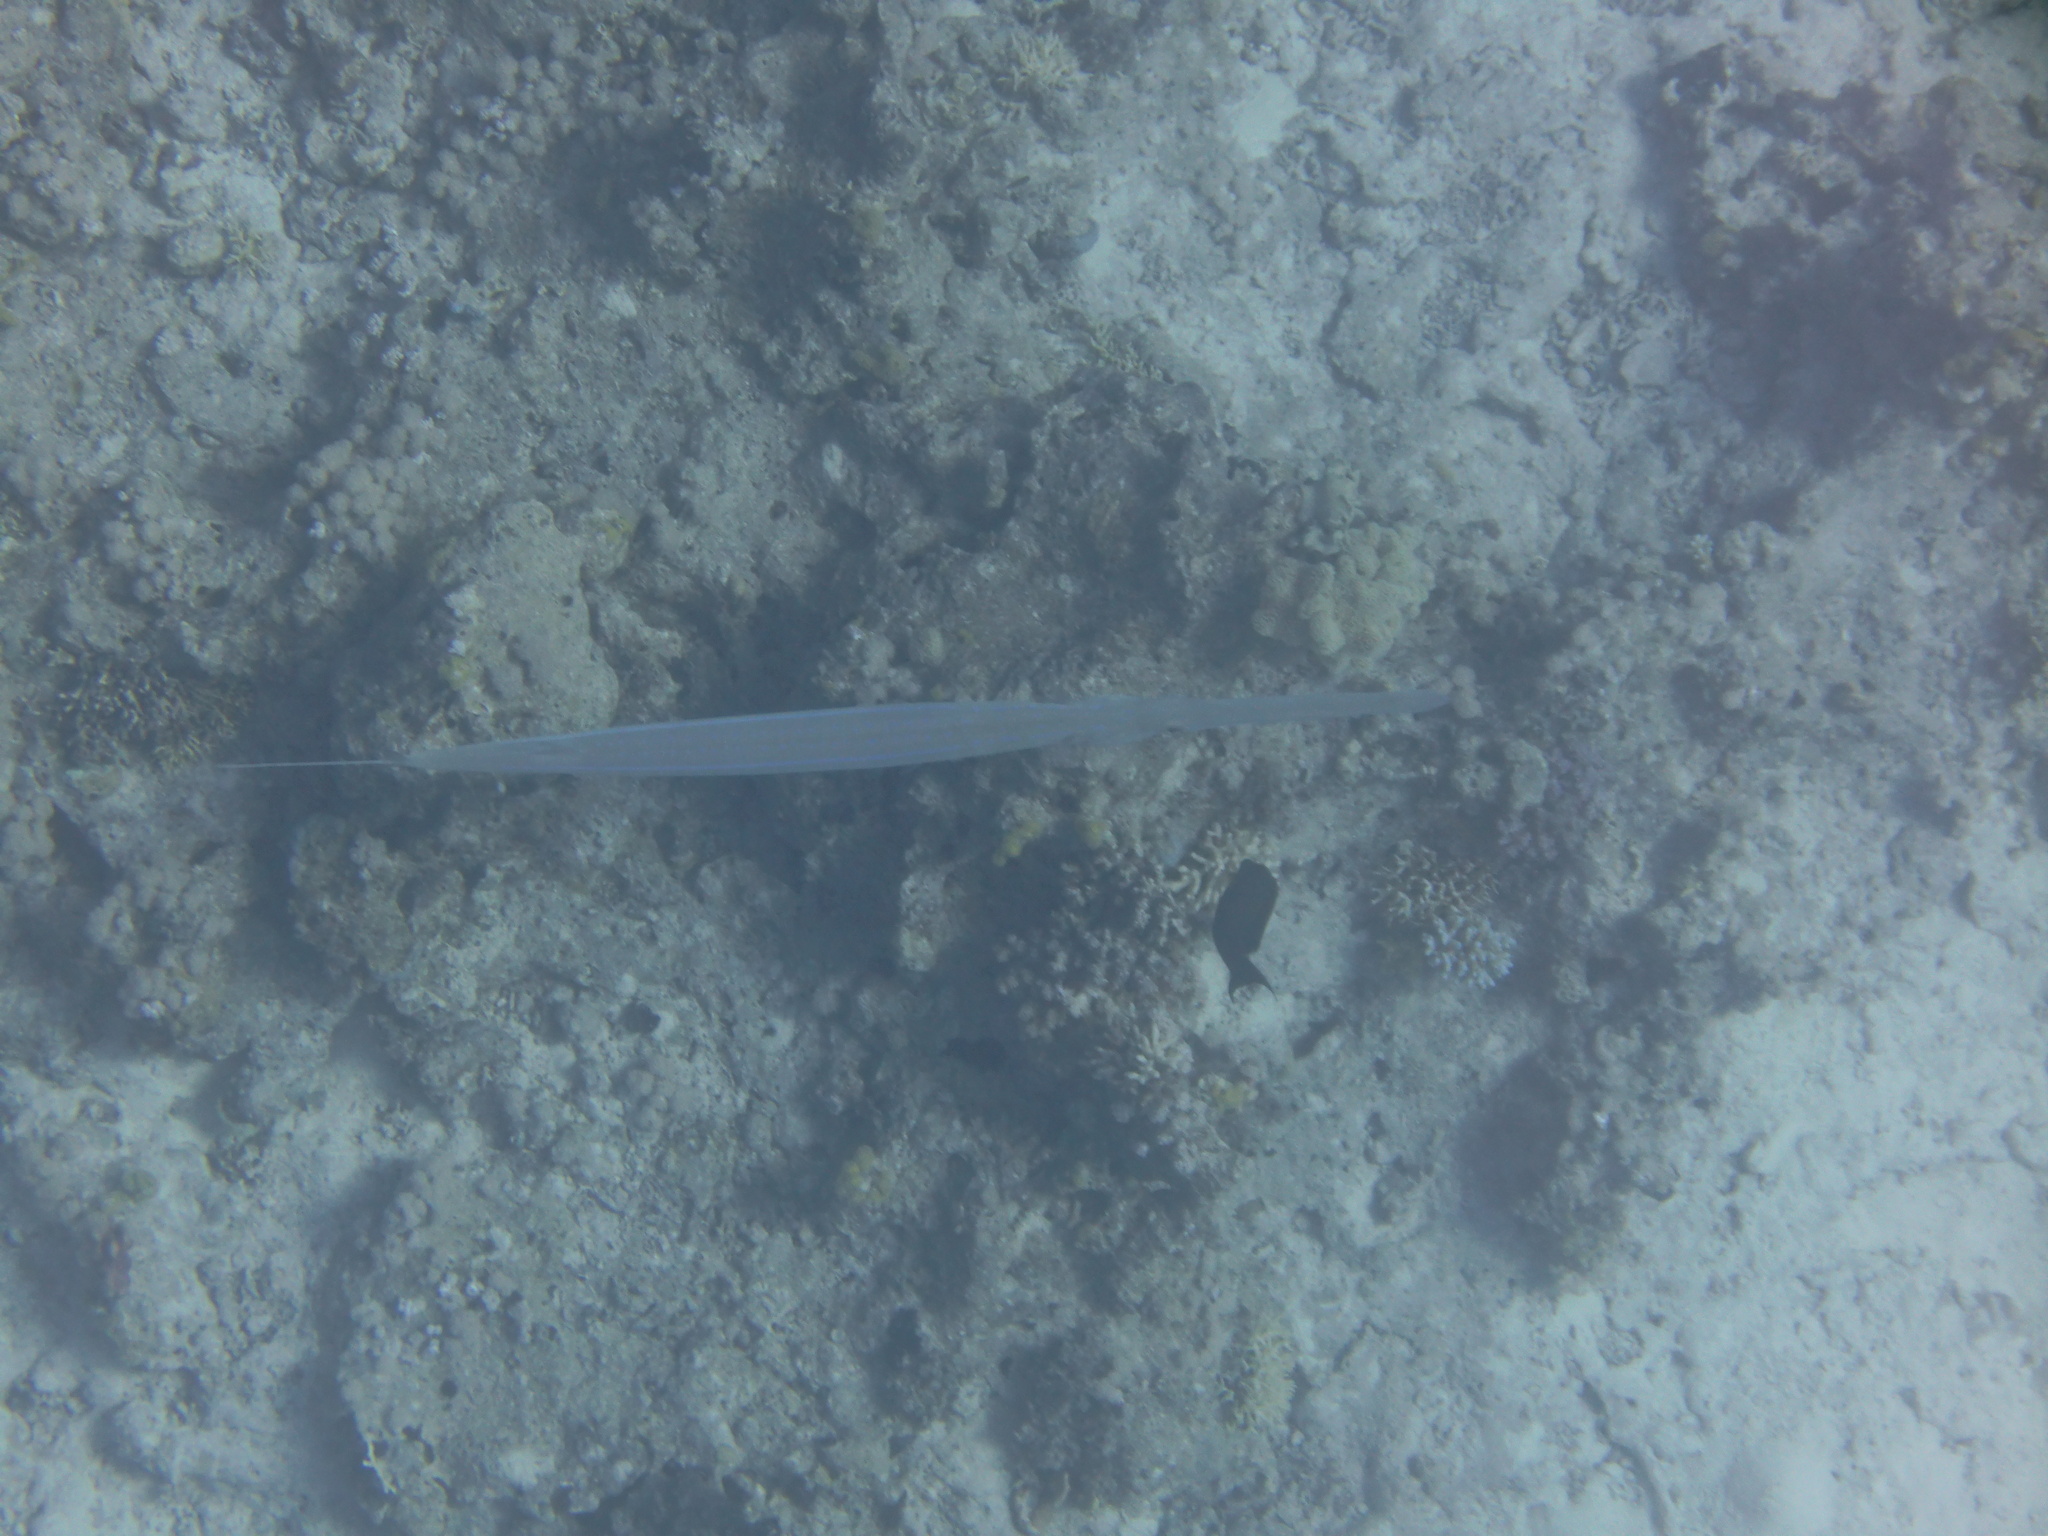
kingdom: Animalia
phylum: Chordata
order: Syngnathiformes
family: Fistulariidae
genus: Fistularia
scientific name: Fistularia commersonii
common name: Bluespotted cornetfish
